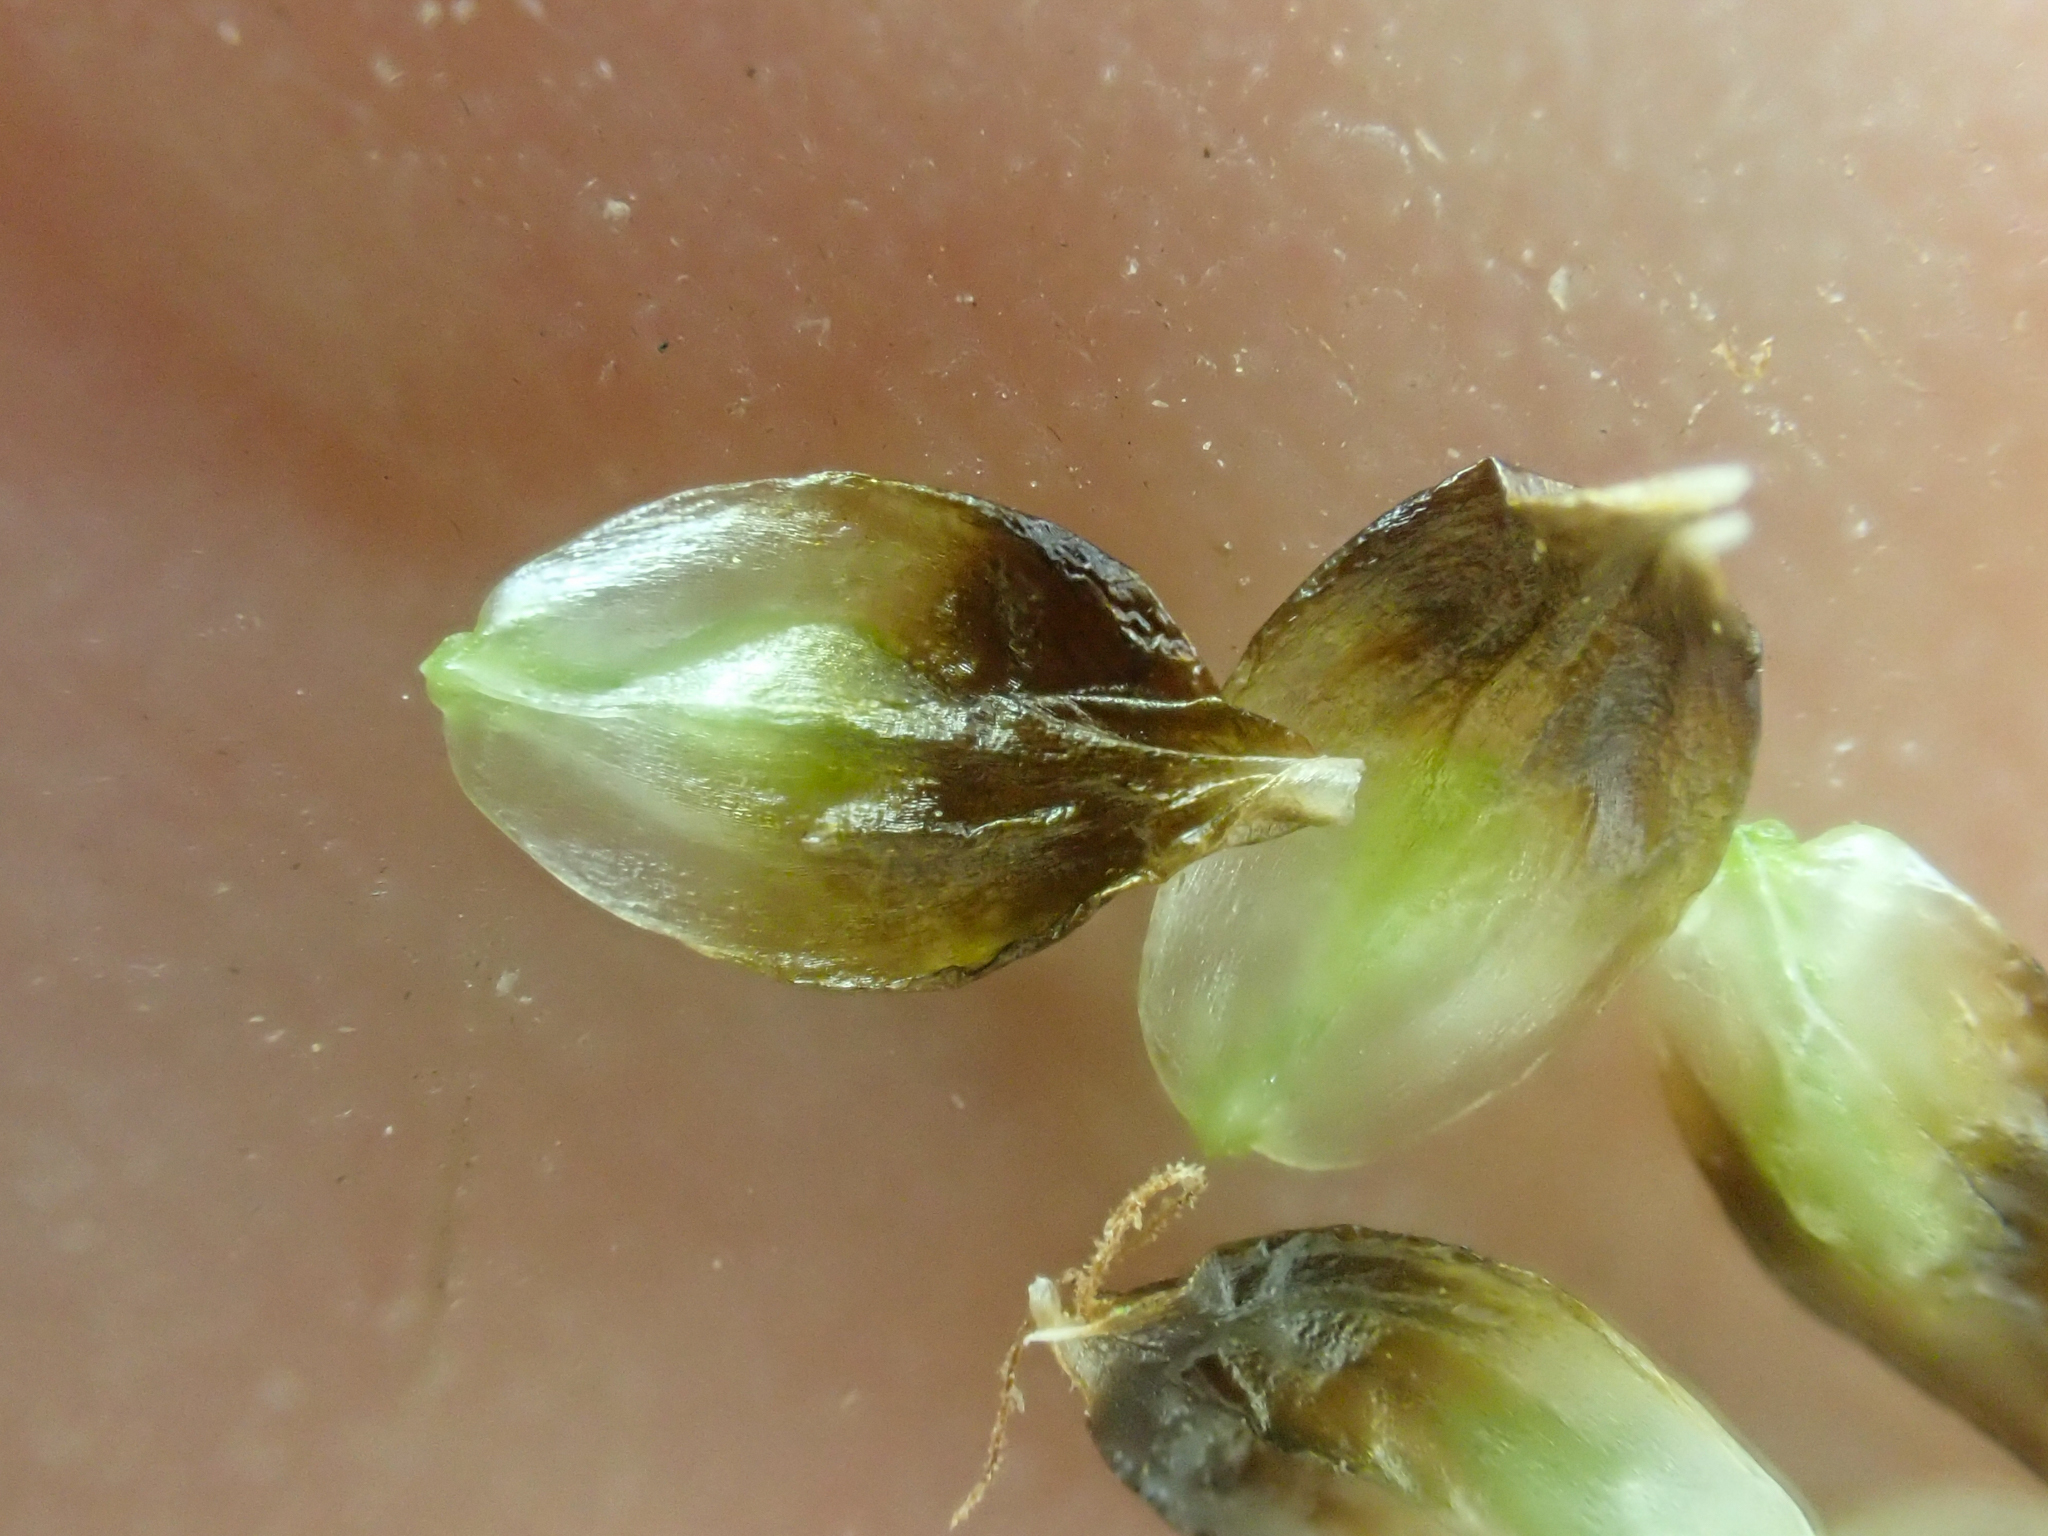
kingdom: Plantae
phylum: Tracheophyta
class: Liliopsida
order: Poales
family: Cyperaceae
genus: Carex
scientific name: Carex engelmannii
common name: Engelmann's sedge
